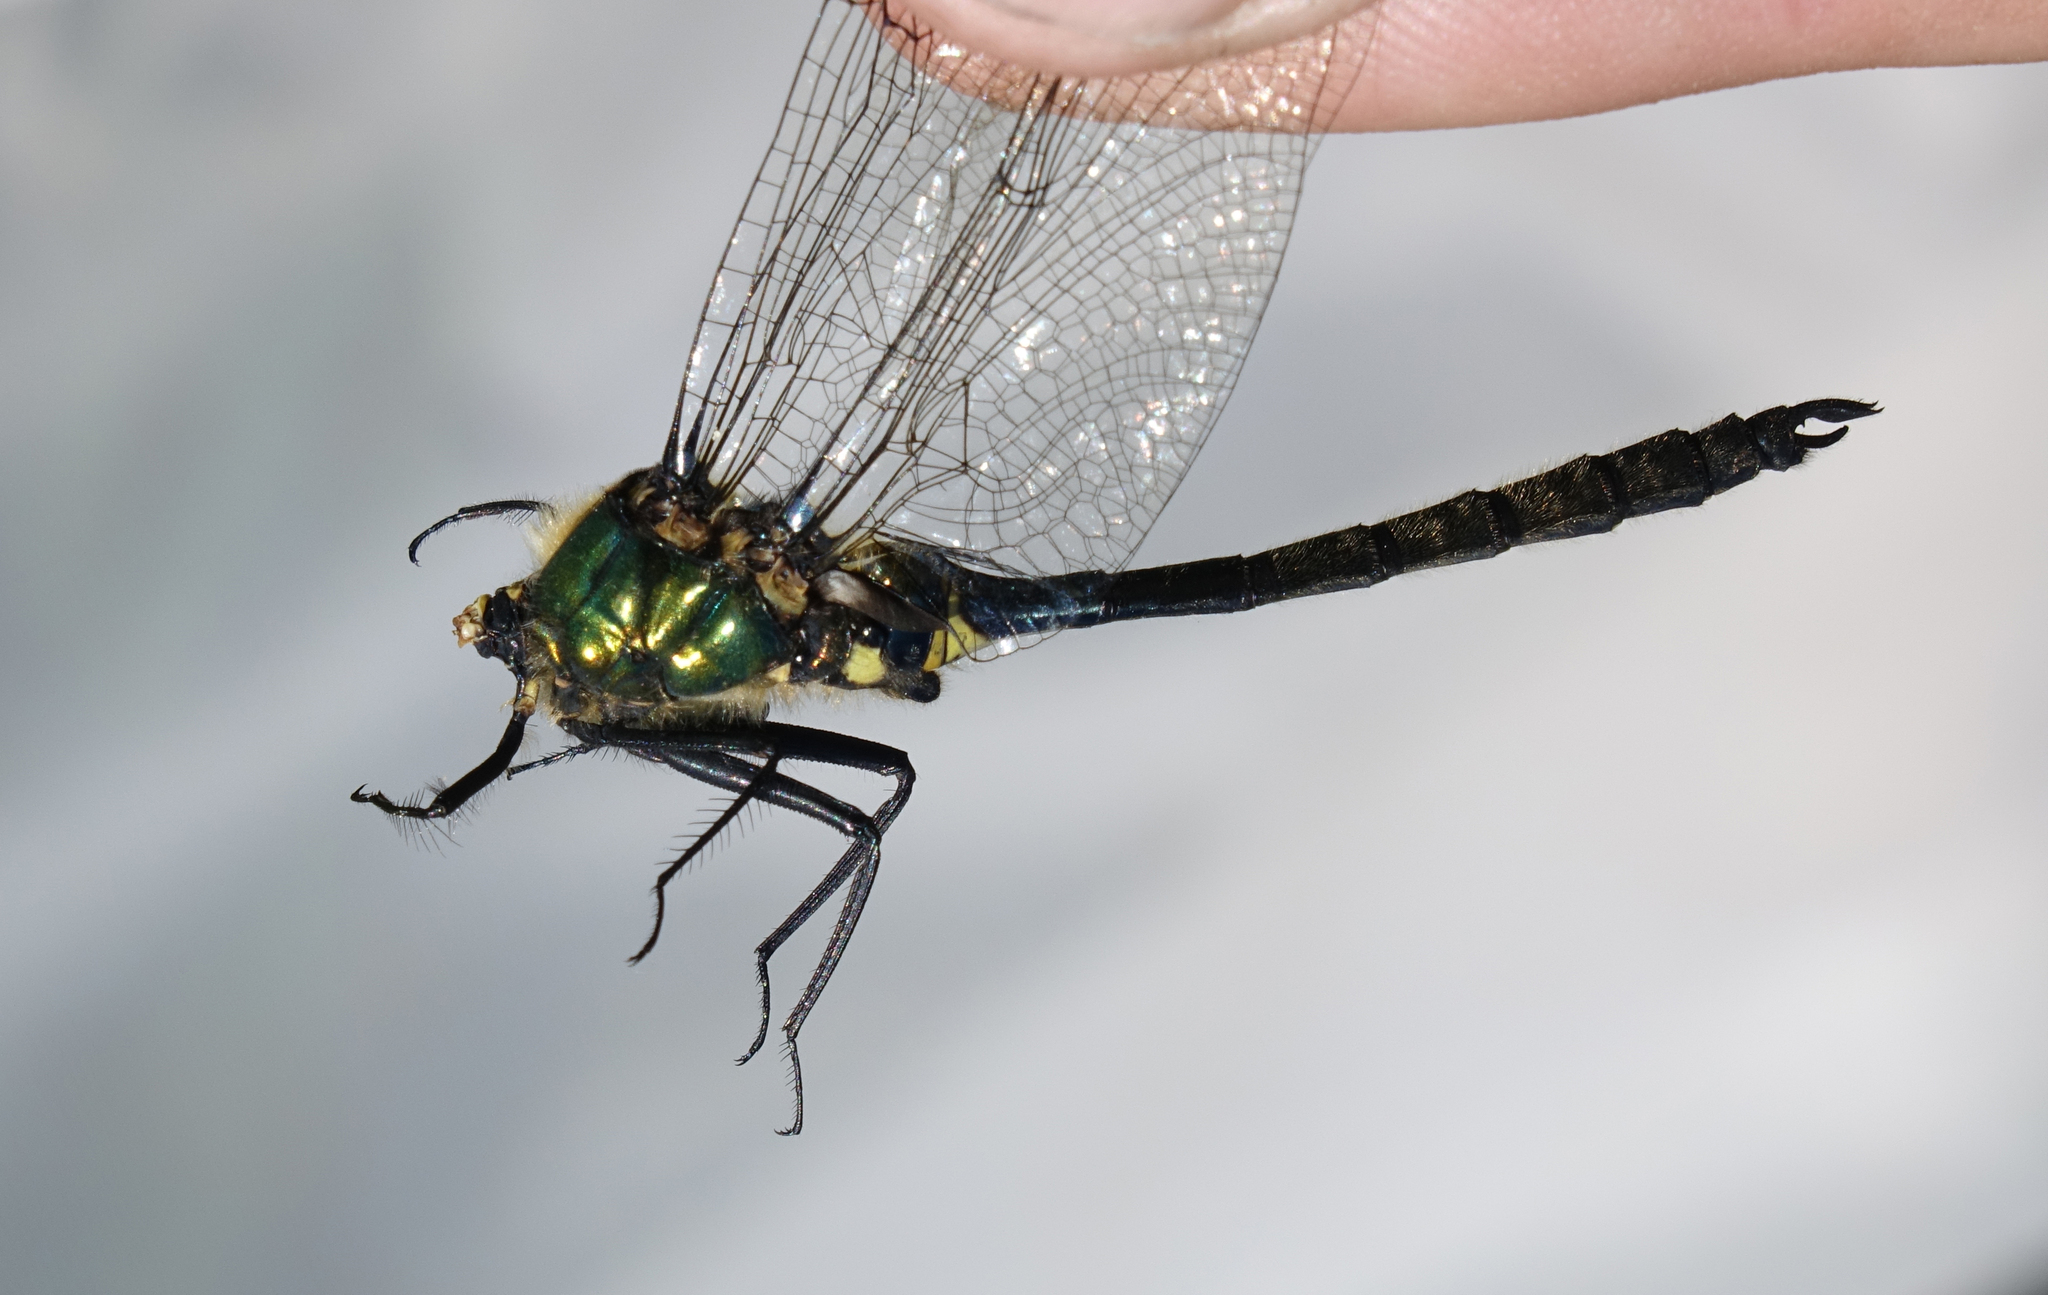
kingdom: Animalia
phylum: Arthropoda
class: Insecta
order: Odonata
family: Corduliidae
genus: Somatochlora
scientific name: Somatochlora graeseri
